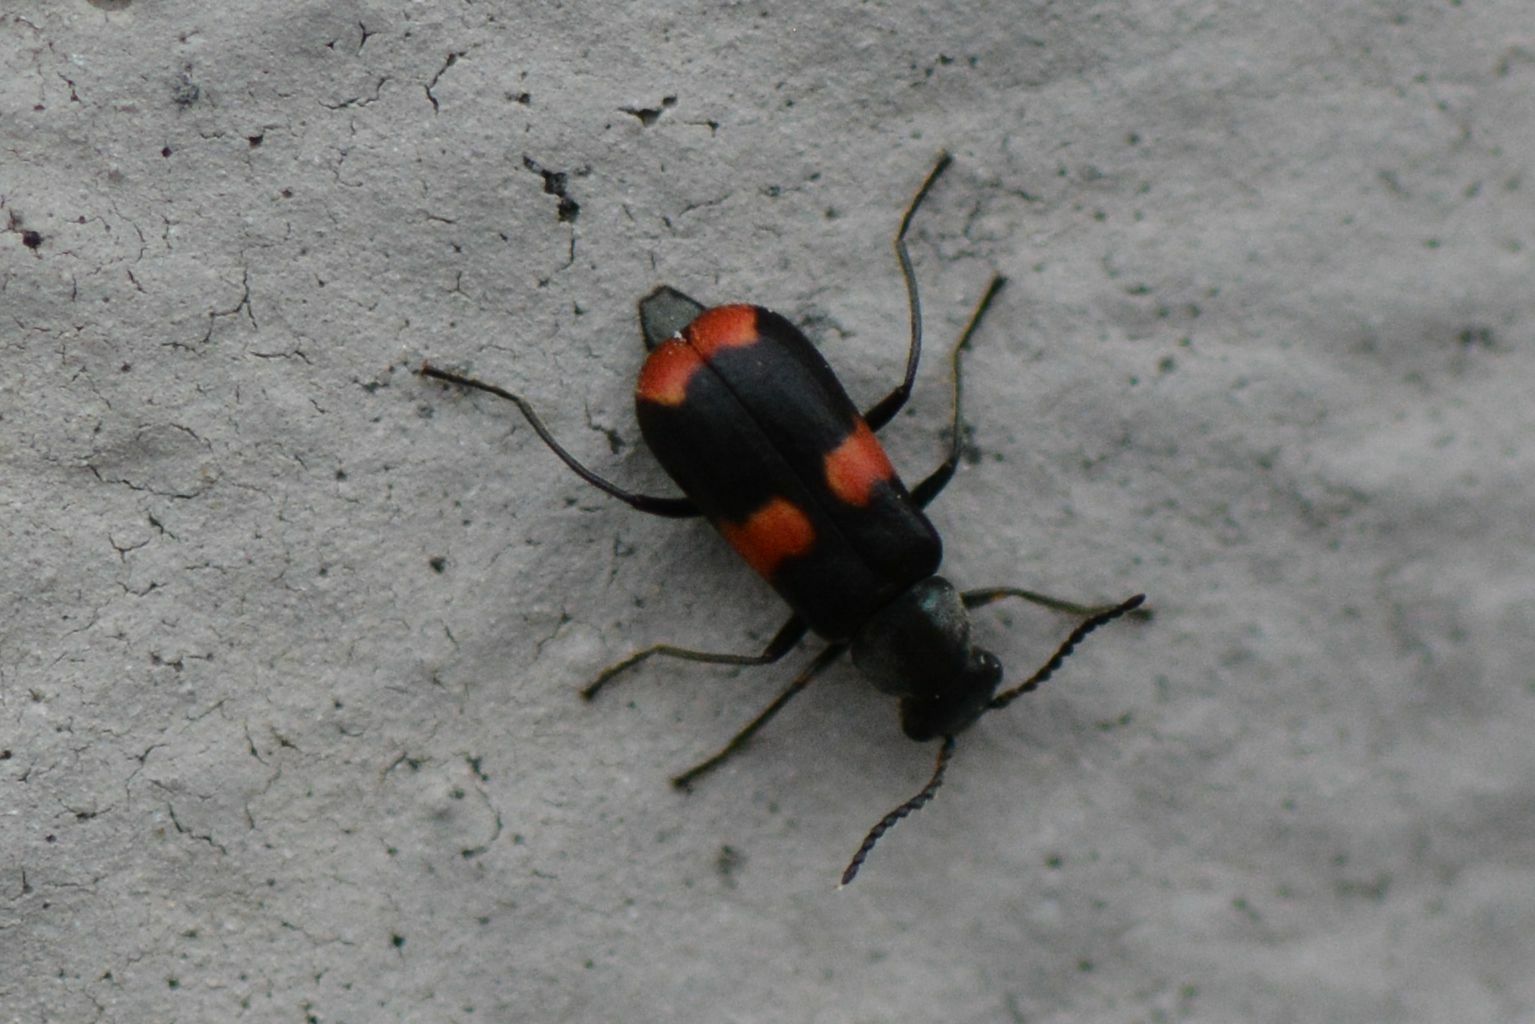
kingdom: Animalia
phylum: Arthropoda
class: Insecta
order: Coleoptera
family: Melyridae
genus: Anthocomus
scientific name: Anthocomus fasciatus
